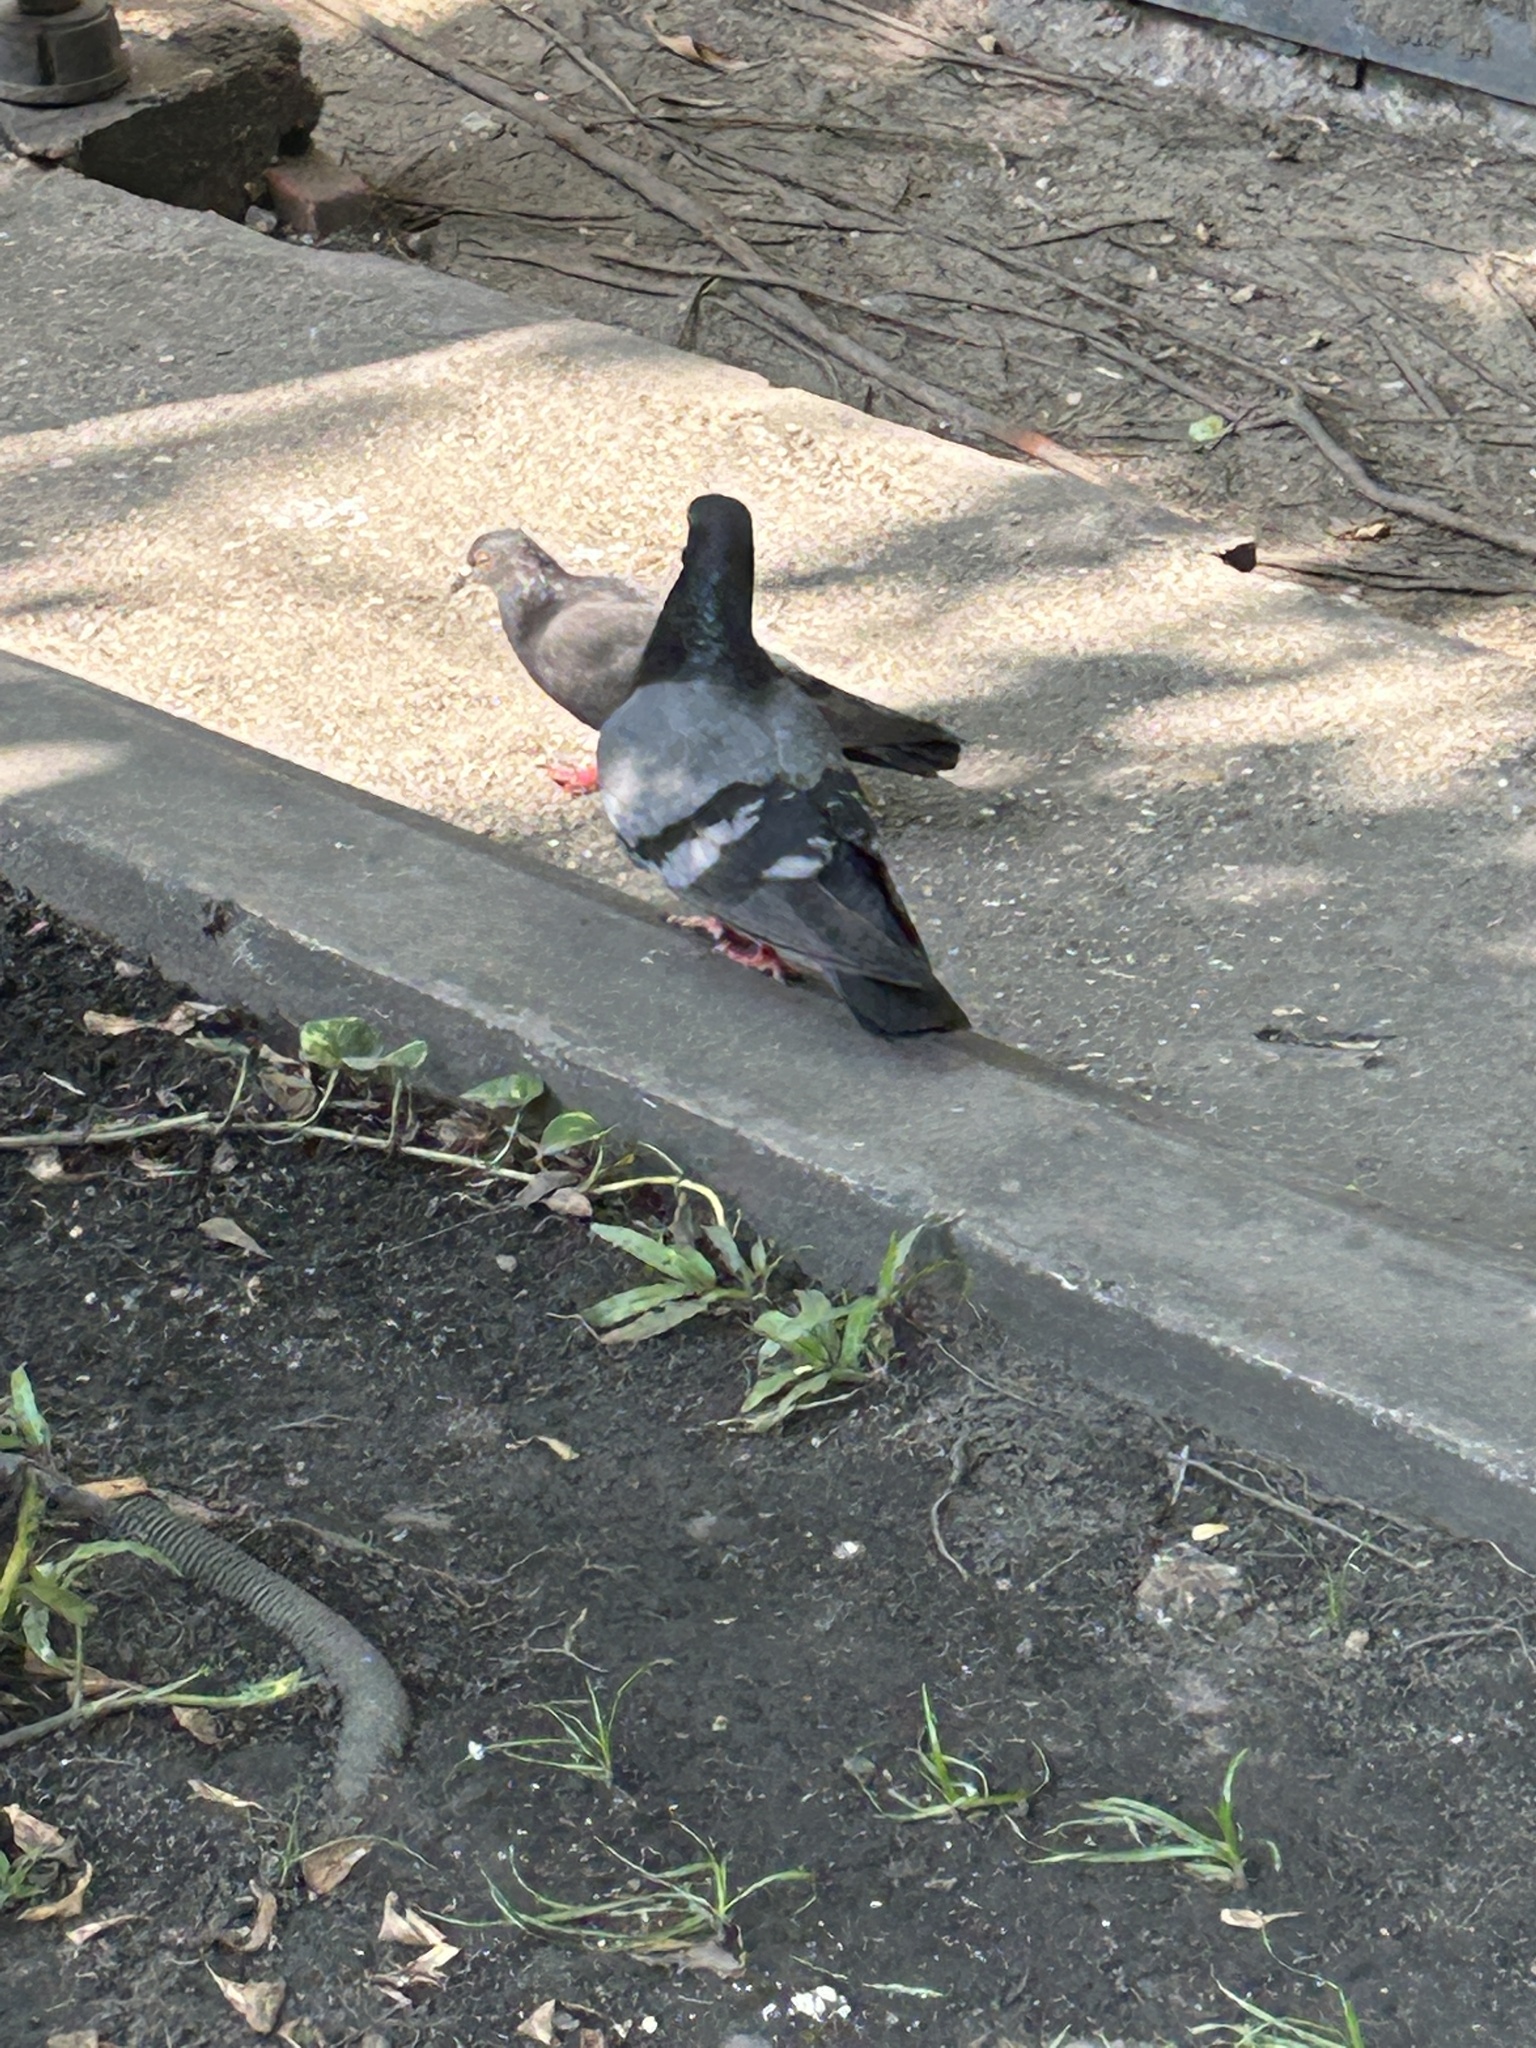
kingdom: Animalia
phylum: Chordata
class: Aves
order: Columbiformes
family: Columbidae
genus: Columba
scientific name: Columba livia
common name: Rock pigeon
